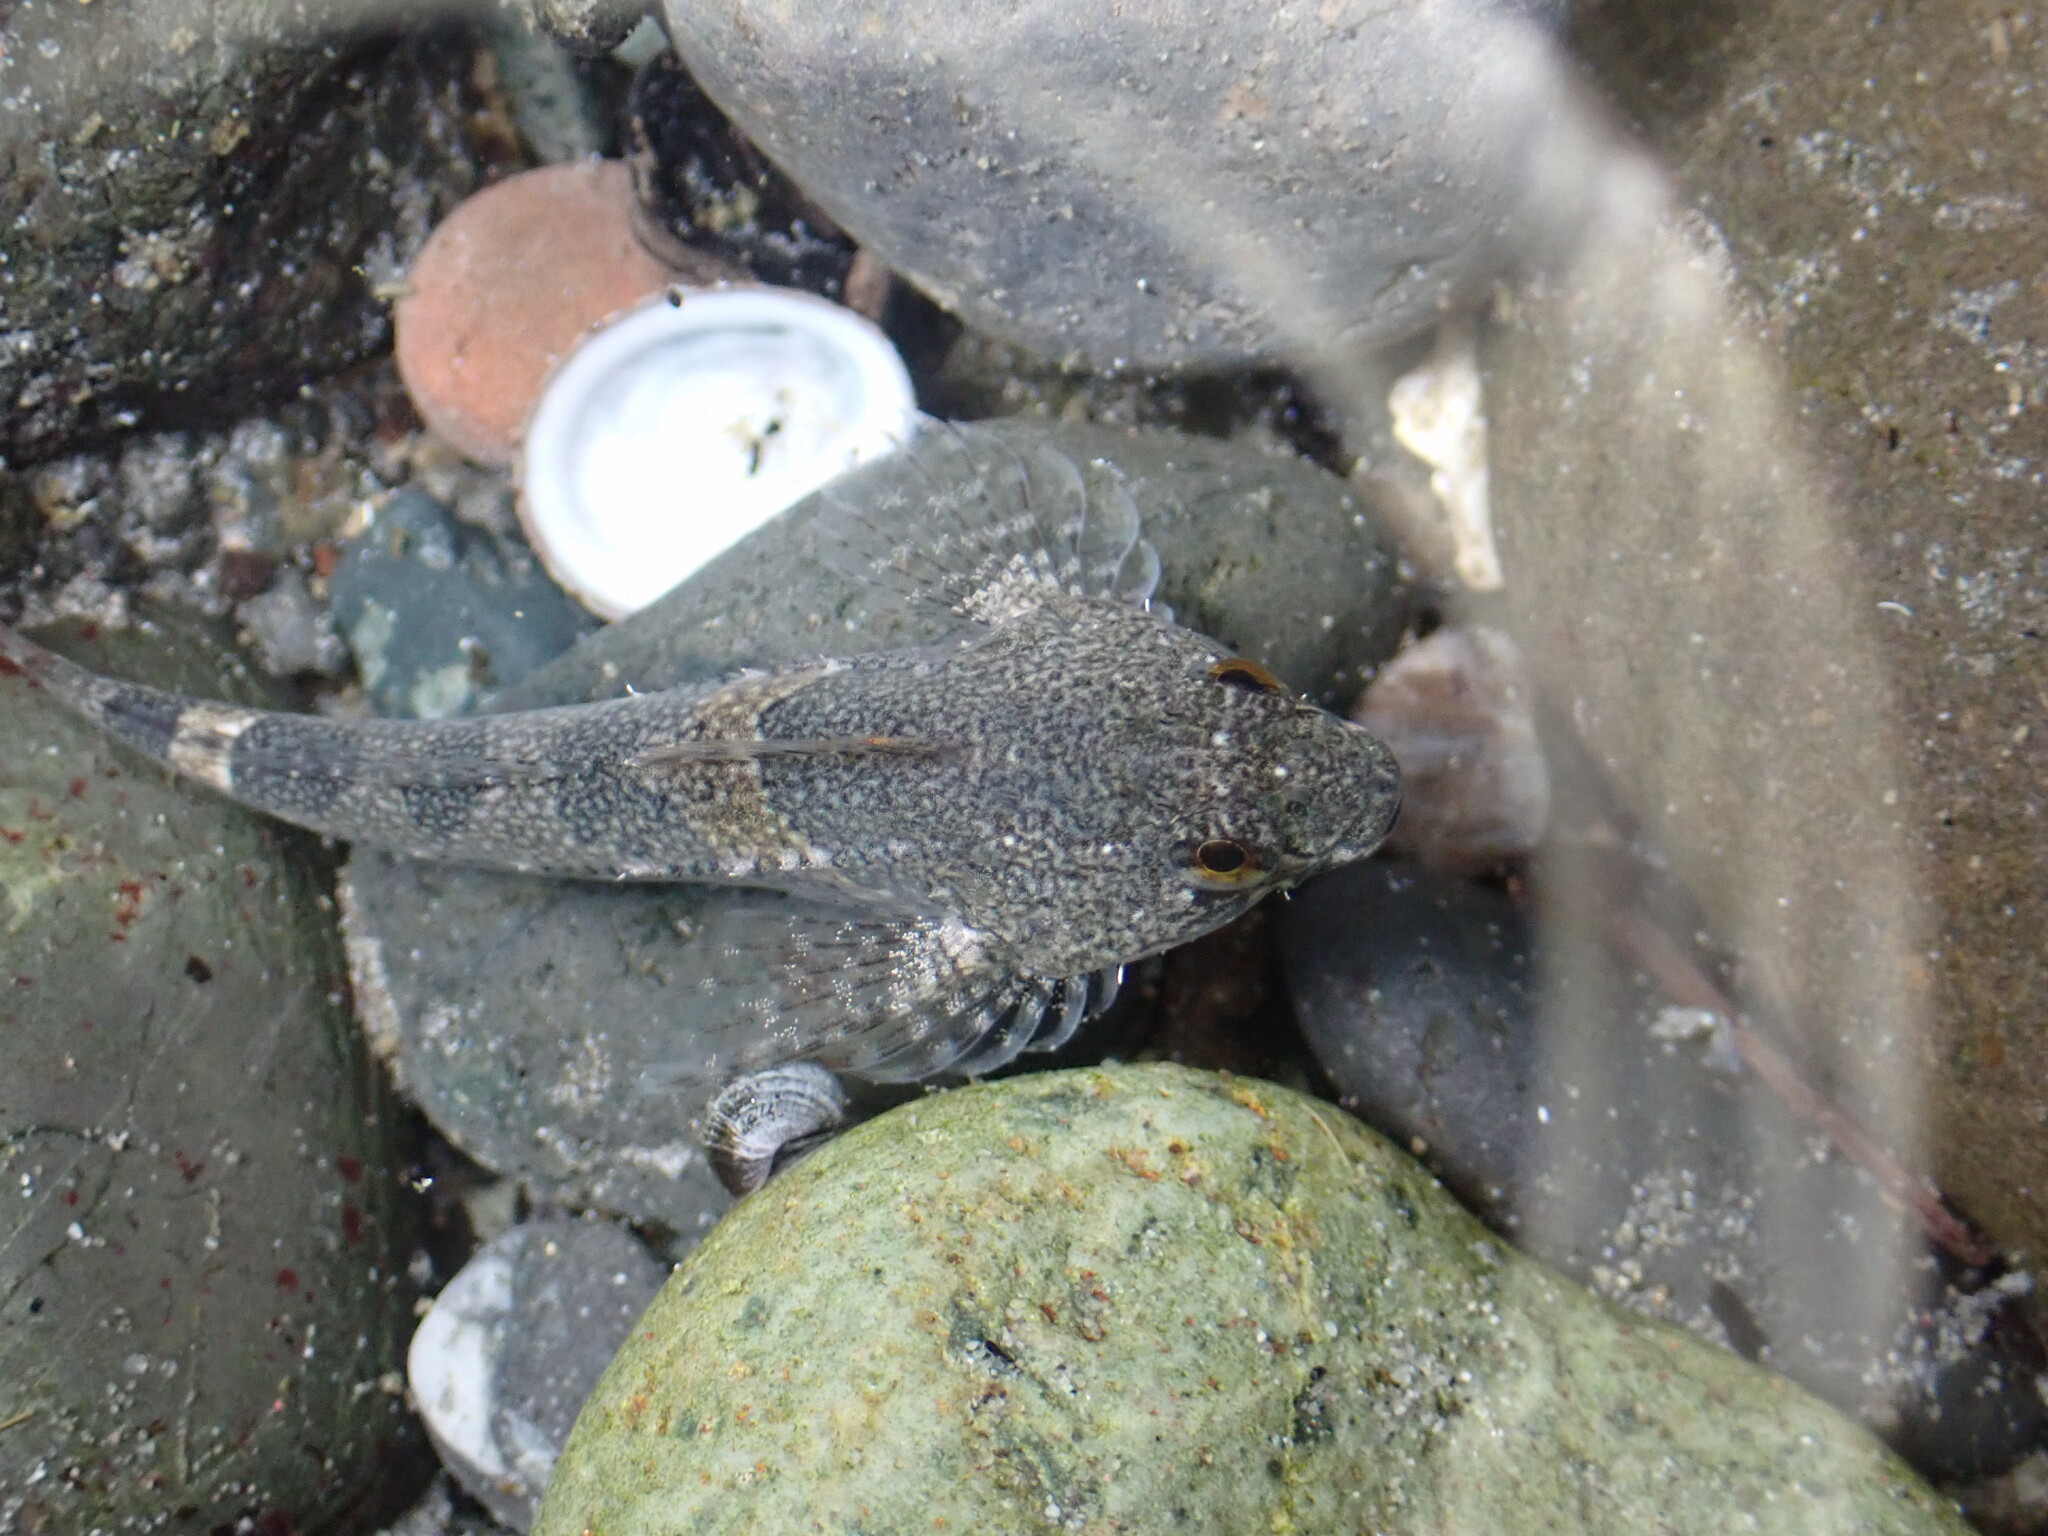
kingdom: Animalia
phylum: Chordata
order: Scorpaeniformes
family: Cottidae
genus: Oligocottus
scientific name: Oligocottus maculosus
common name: Tidepool sculpin
